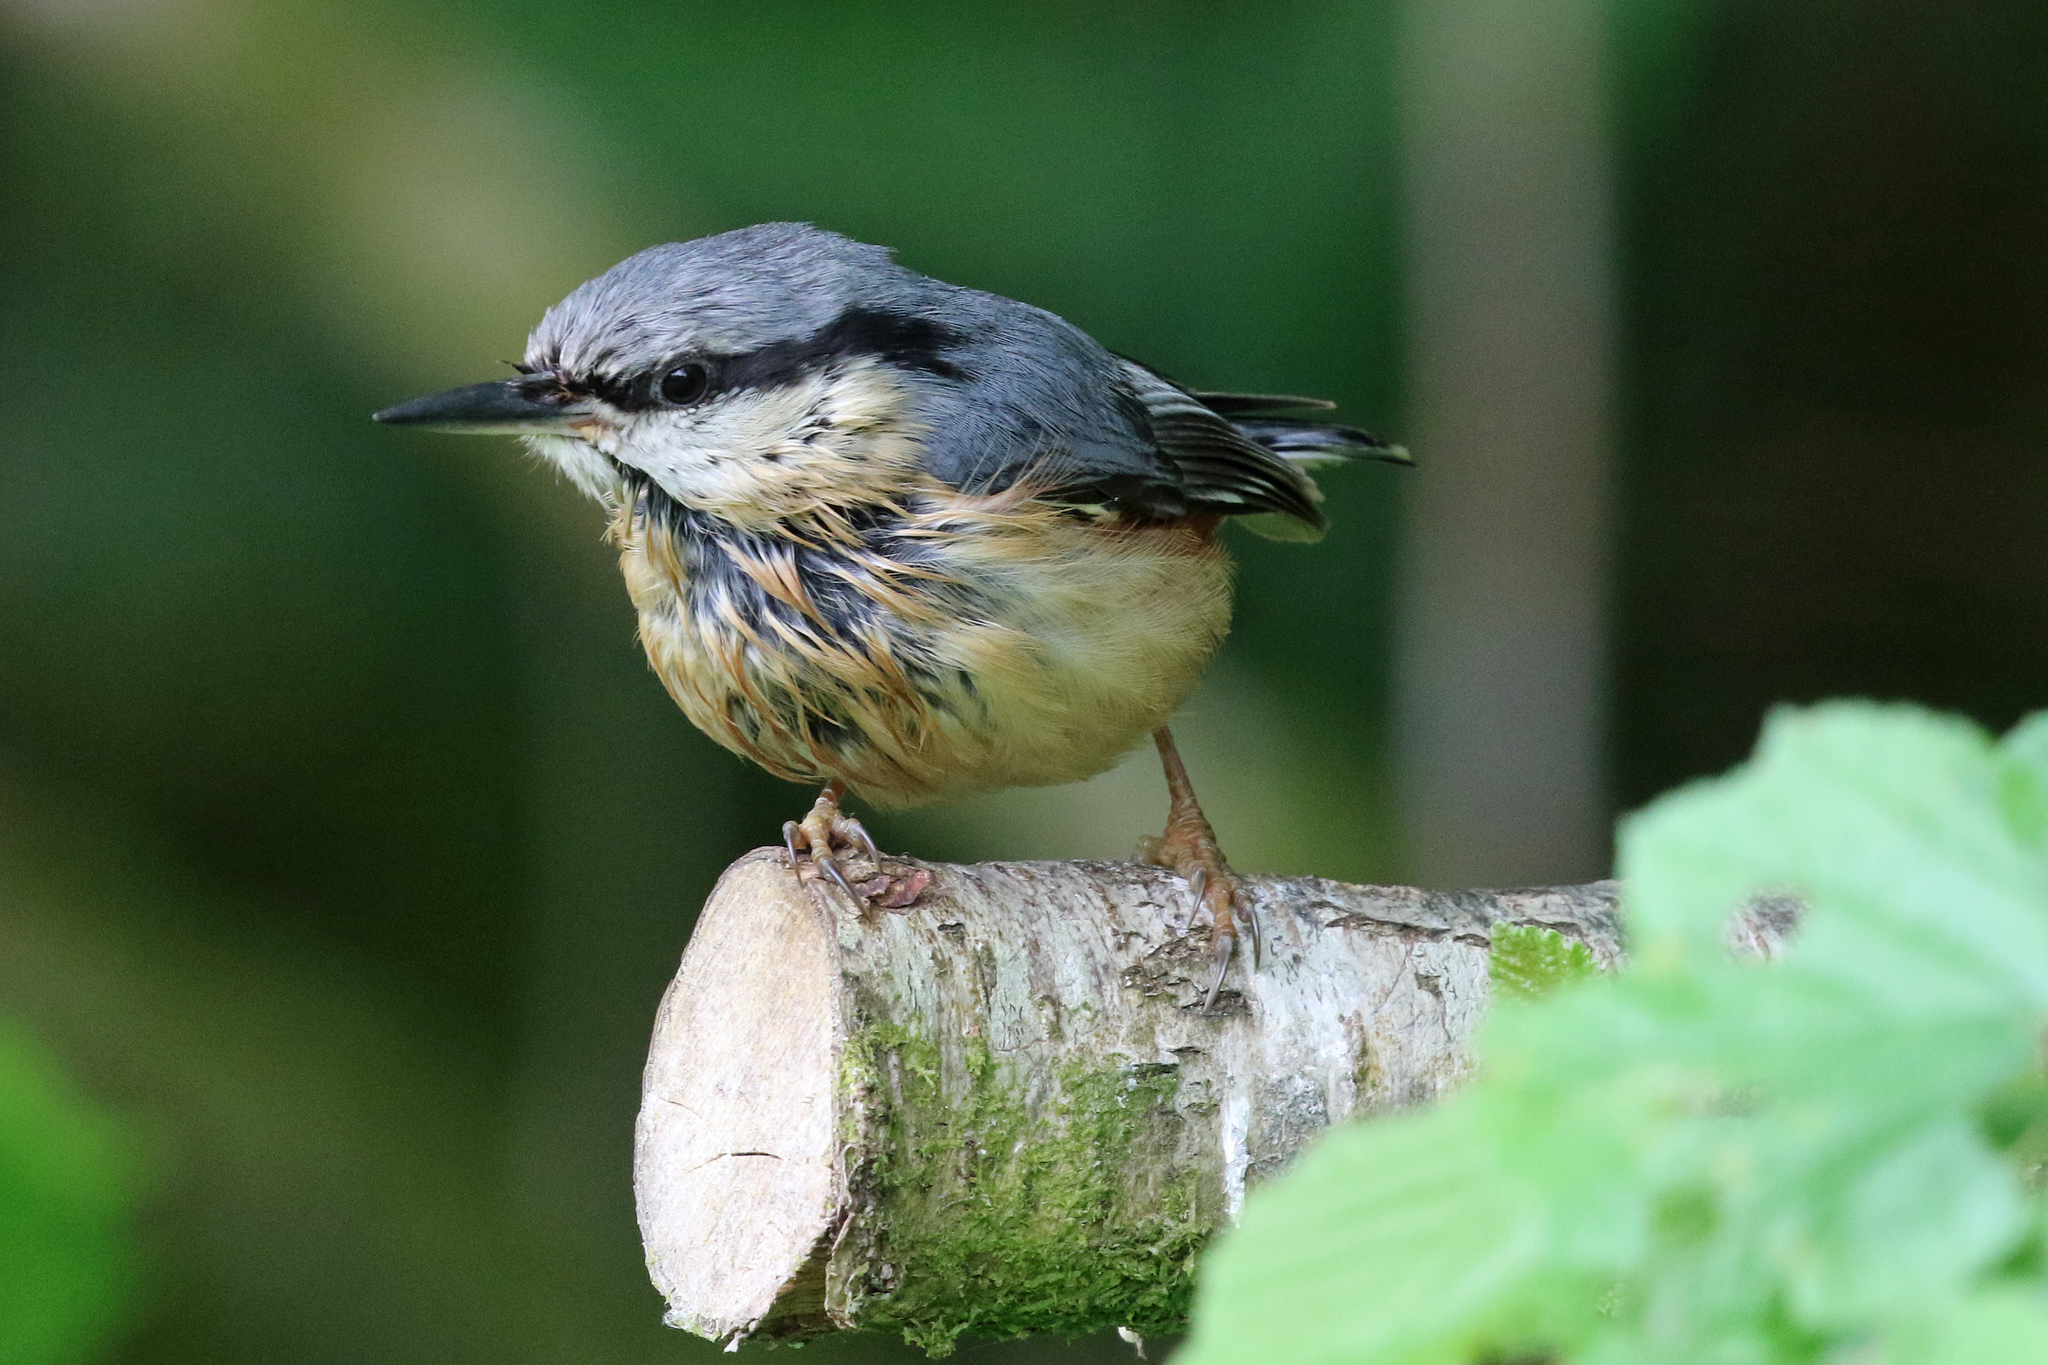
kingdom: Animalia
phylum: Chordata
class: Aves
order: Passeriformes
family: Sittidae
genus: Sitta
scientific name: Sitta europaea
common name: Eurasian nuthatch
